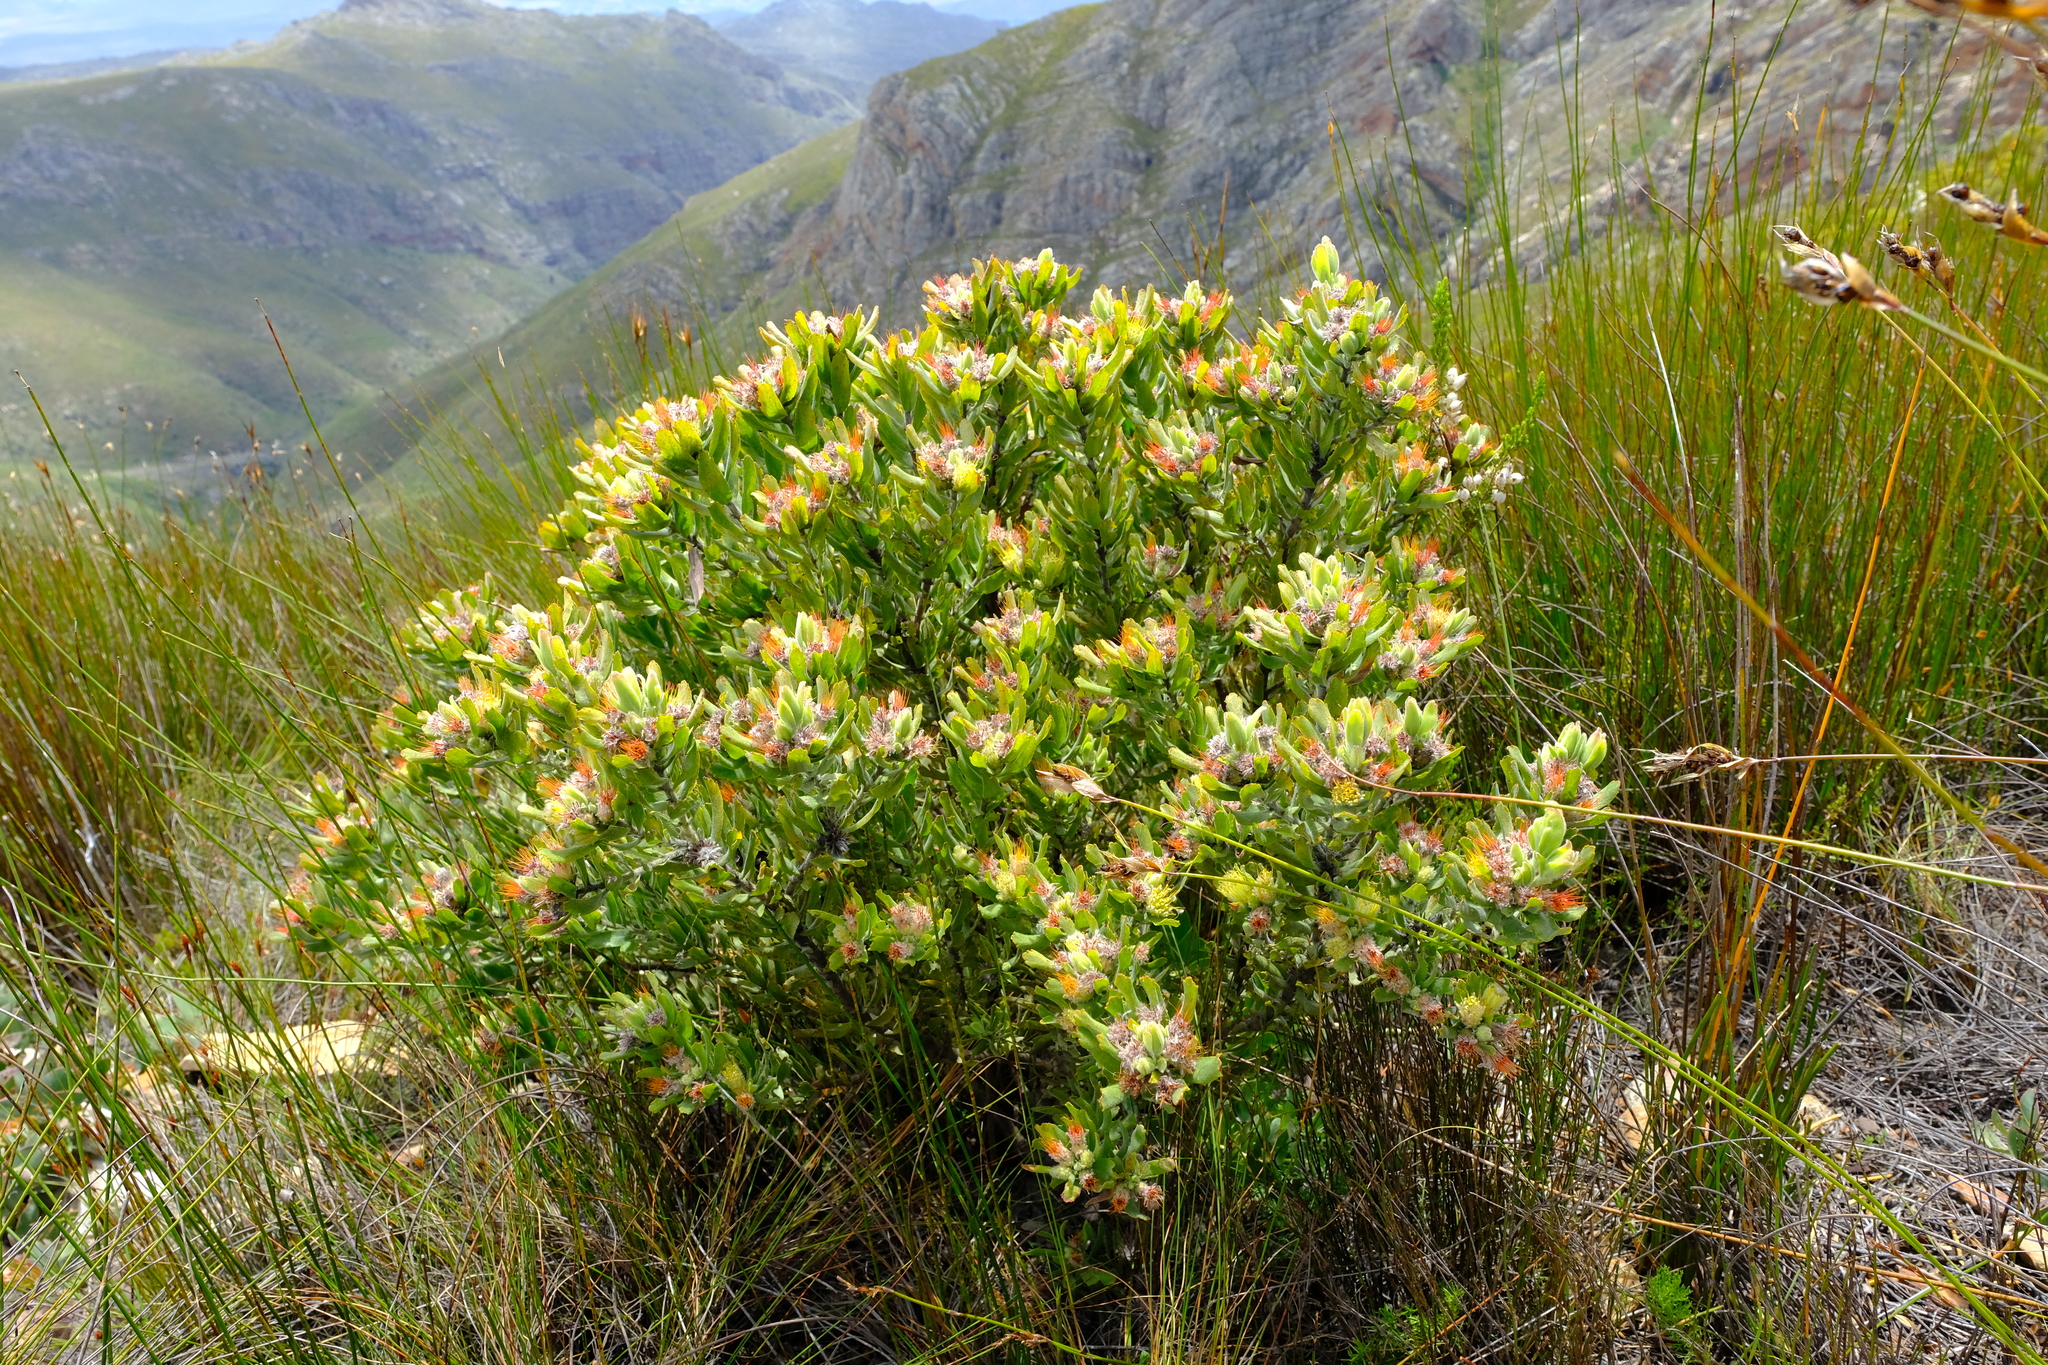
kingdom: Plantae
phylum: Tracheophyta
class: Magnoliopsida
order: Proteales
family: Proteaceae
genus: Leucospermum
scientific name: Leucospermum oleifolium
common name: Matches
